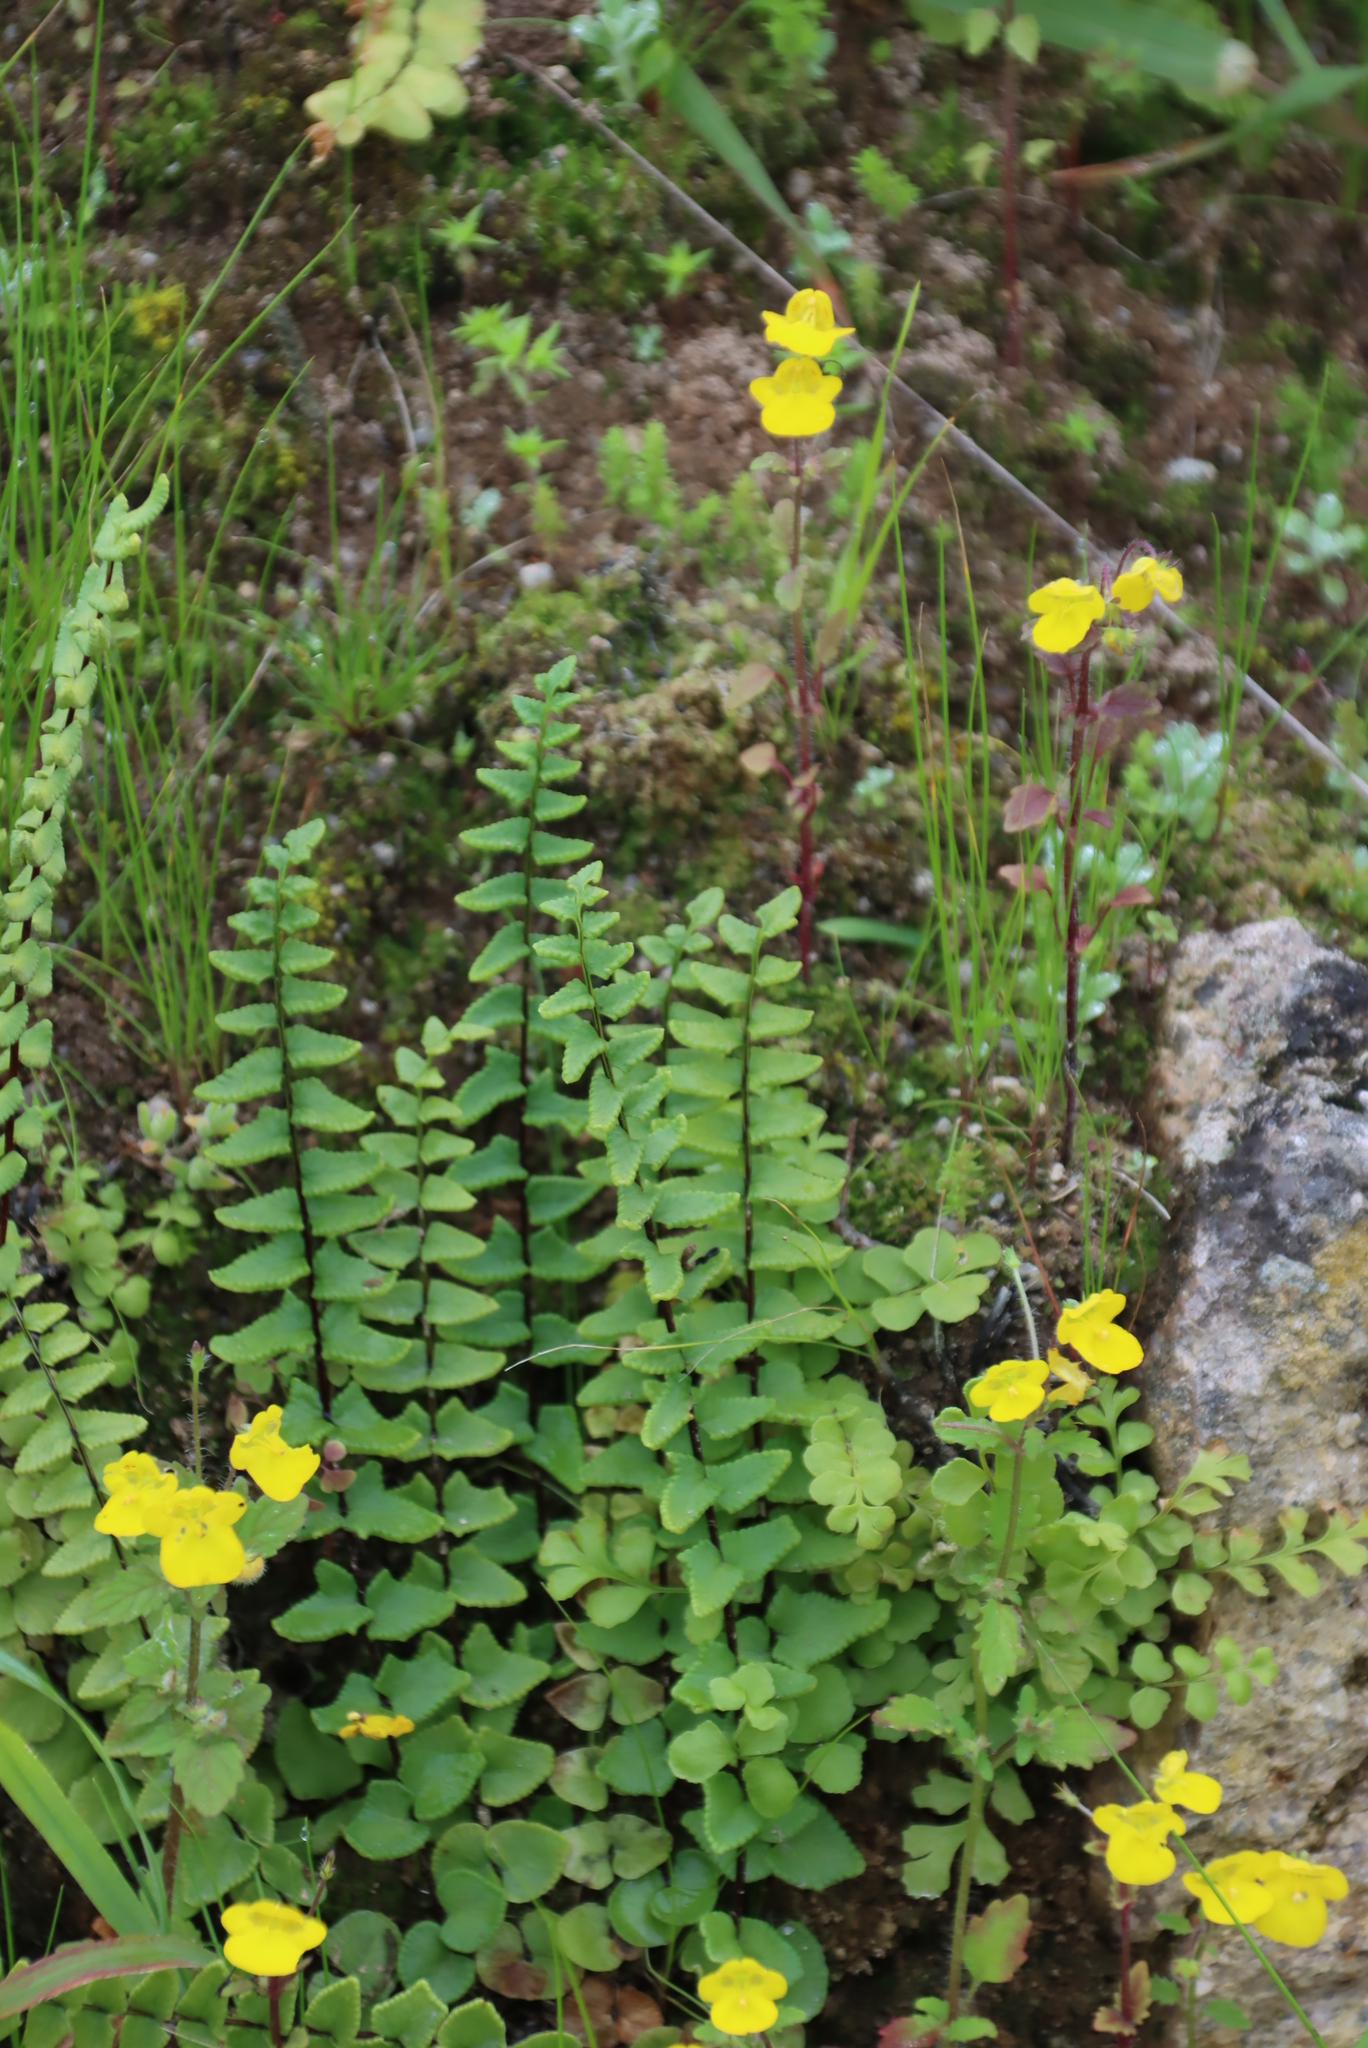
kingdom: Plantae
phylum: Tracheophyta
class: Polypodiopsida
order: Polypodiales
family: Pteridaceae
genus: Cheilanthes
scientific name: Cheilanthes hastata
